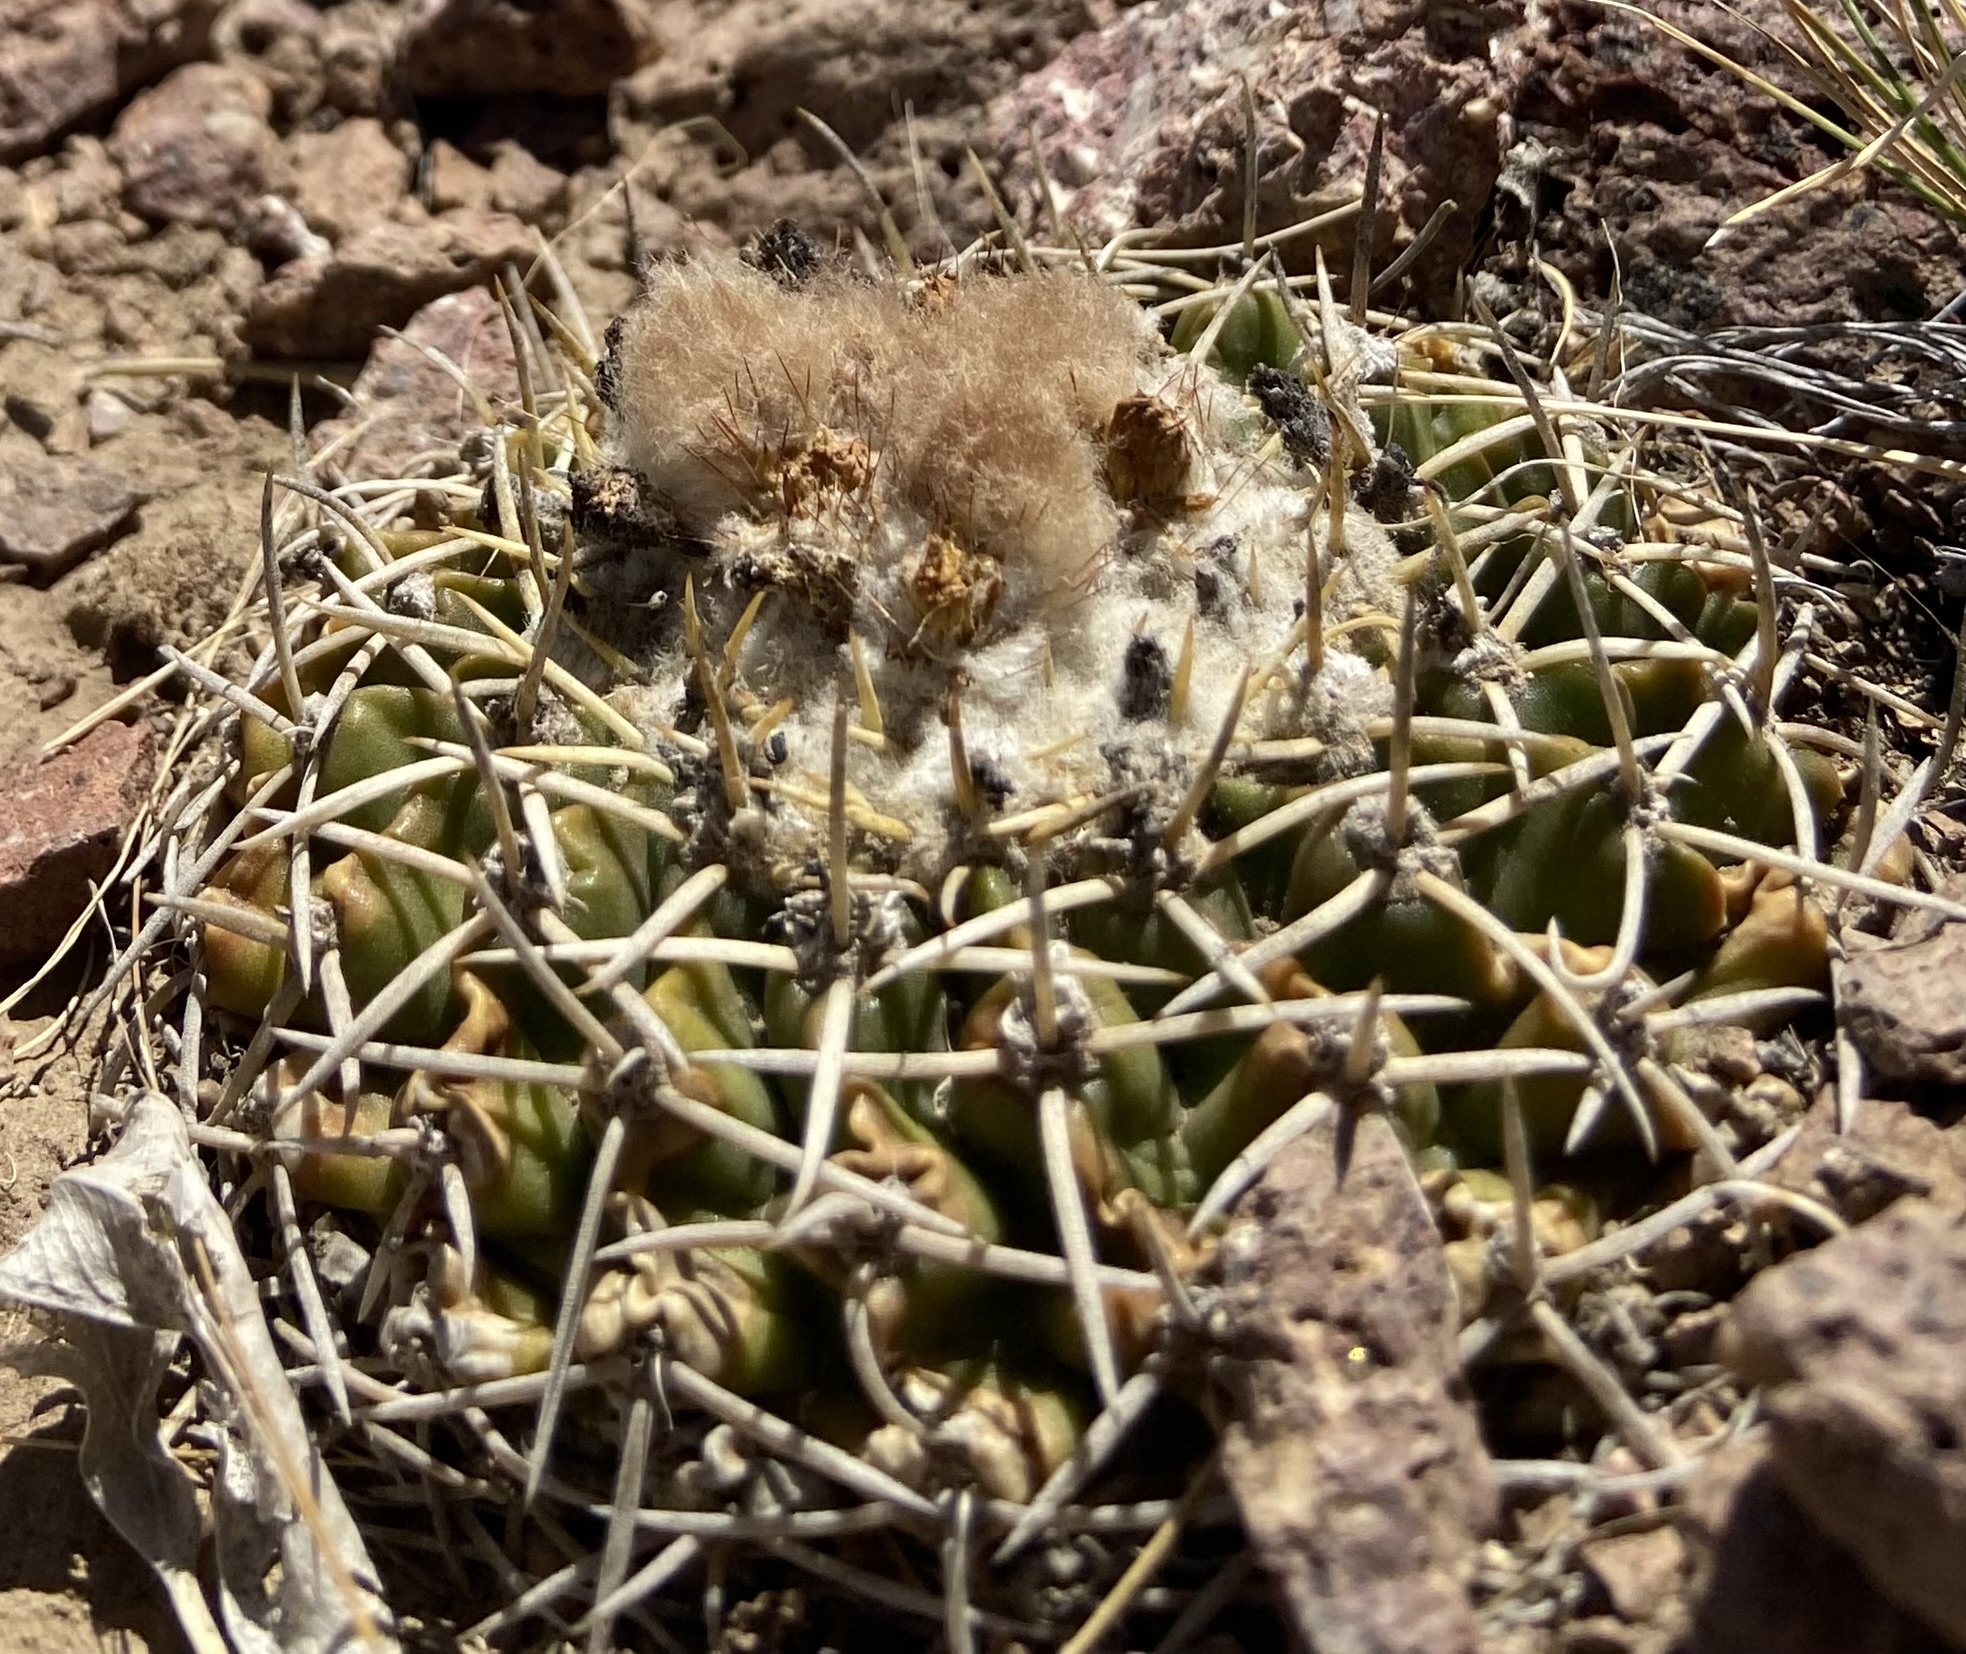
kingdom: Plantae
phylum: Tracheophyta
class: Magnoliopsida
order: Caryophyllales
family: Cactaceae
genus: Parodia
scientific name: Parodia erinacea
